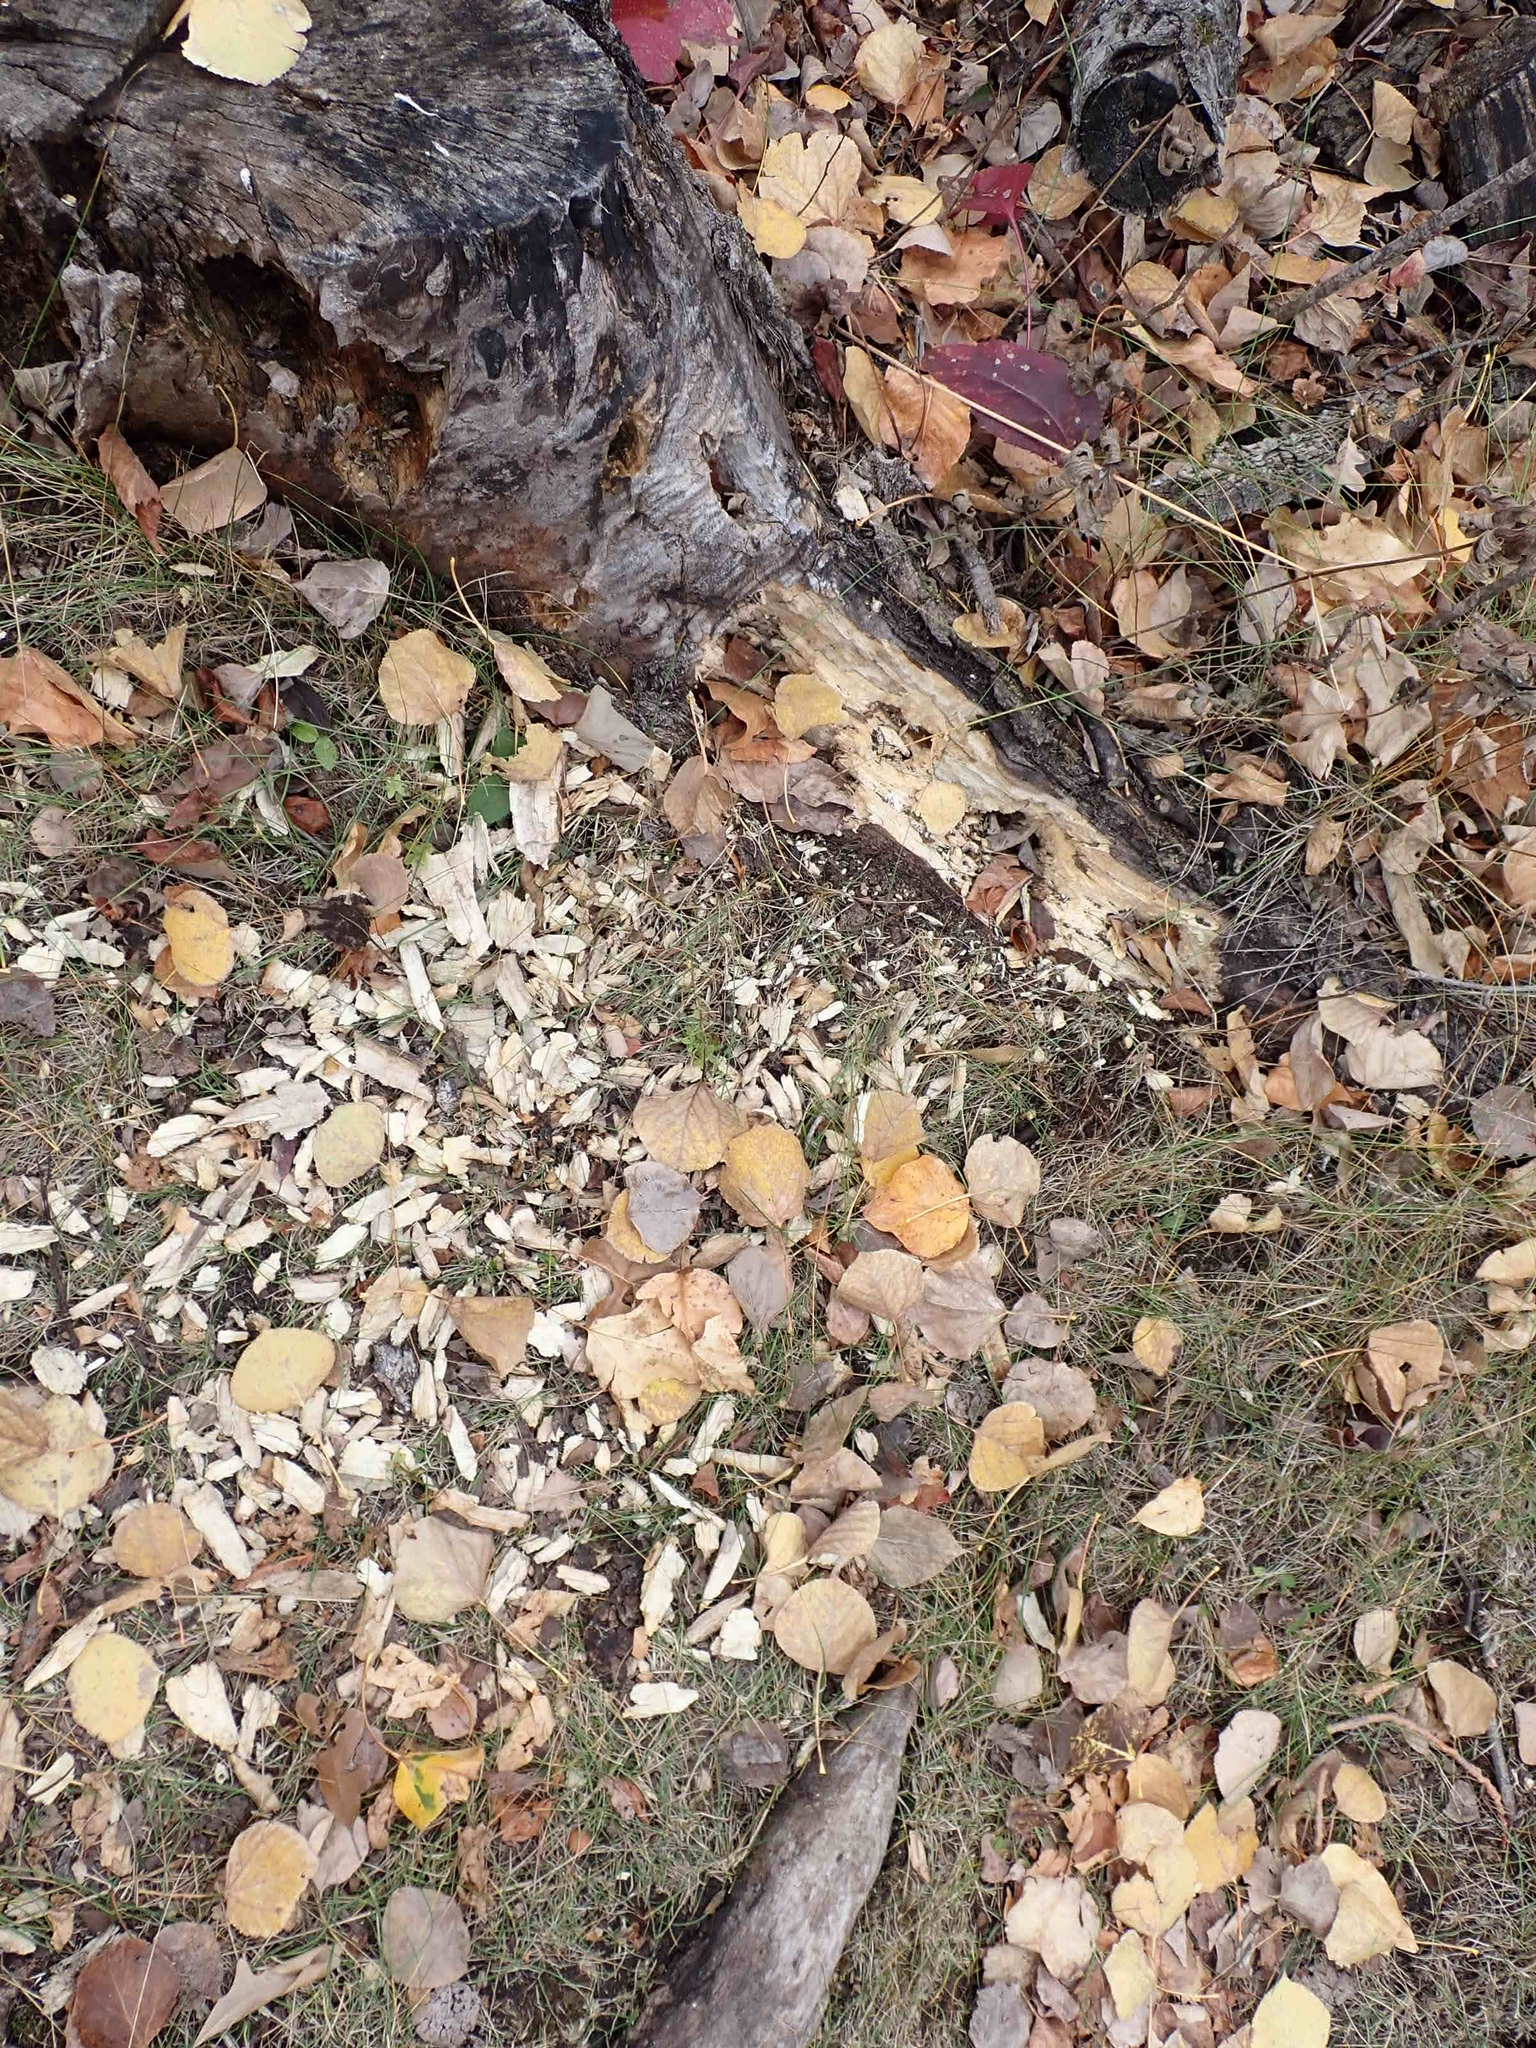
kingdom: Animalia
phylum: Chordata
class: Aves
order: Piciformes
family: Picidae
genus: Dryocopus
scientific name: Dryocopus pileatus
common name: Pileated woodpecker
